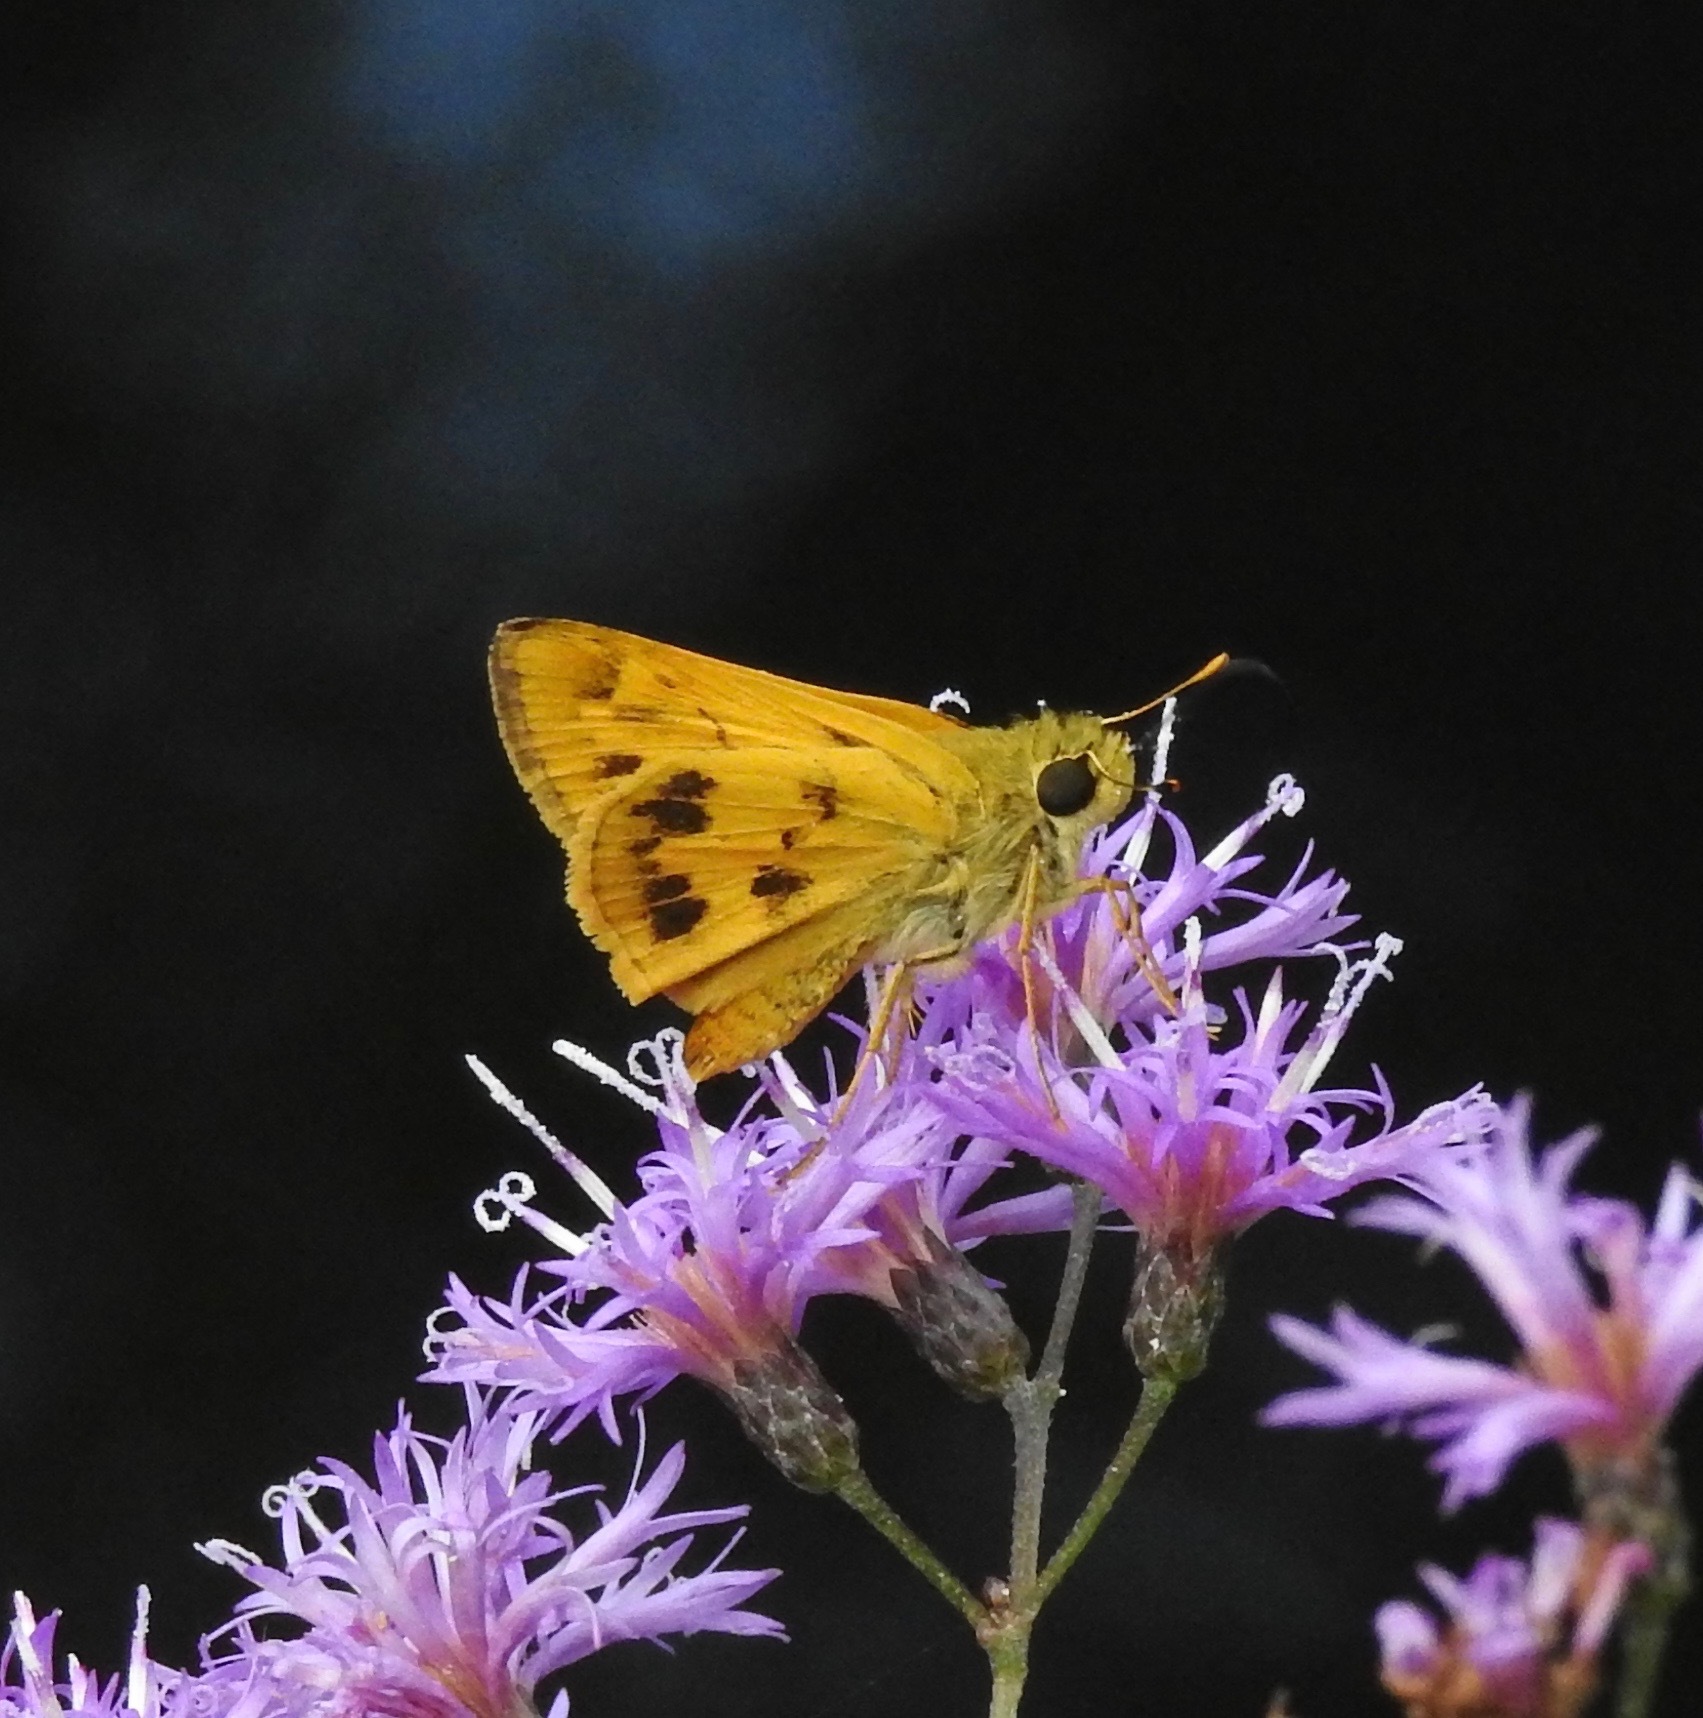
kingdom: Animalia
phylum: Arthropoda
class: Insecta
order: Lepidoptera
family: Hesperiidae
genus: Polites
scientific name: Polites vibex
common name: Whirlabout
